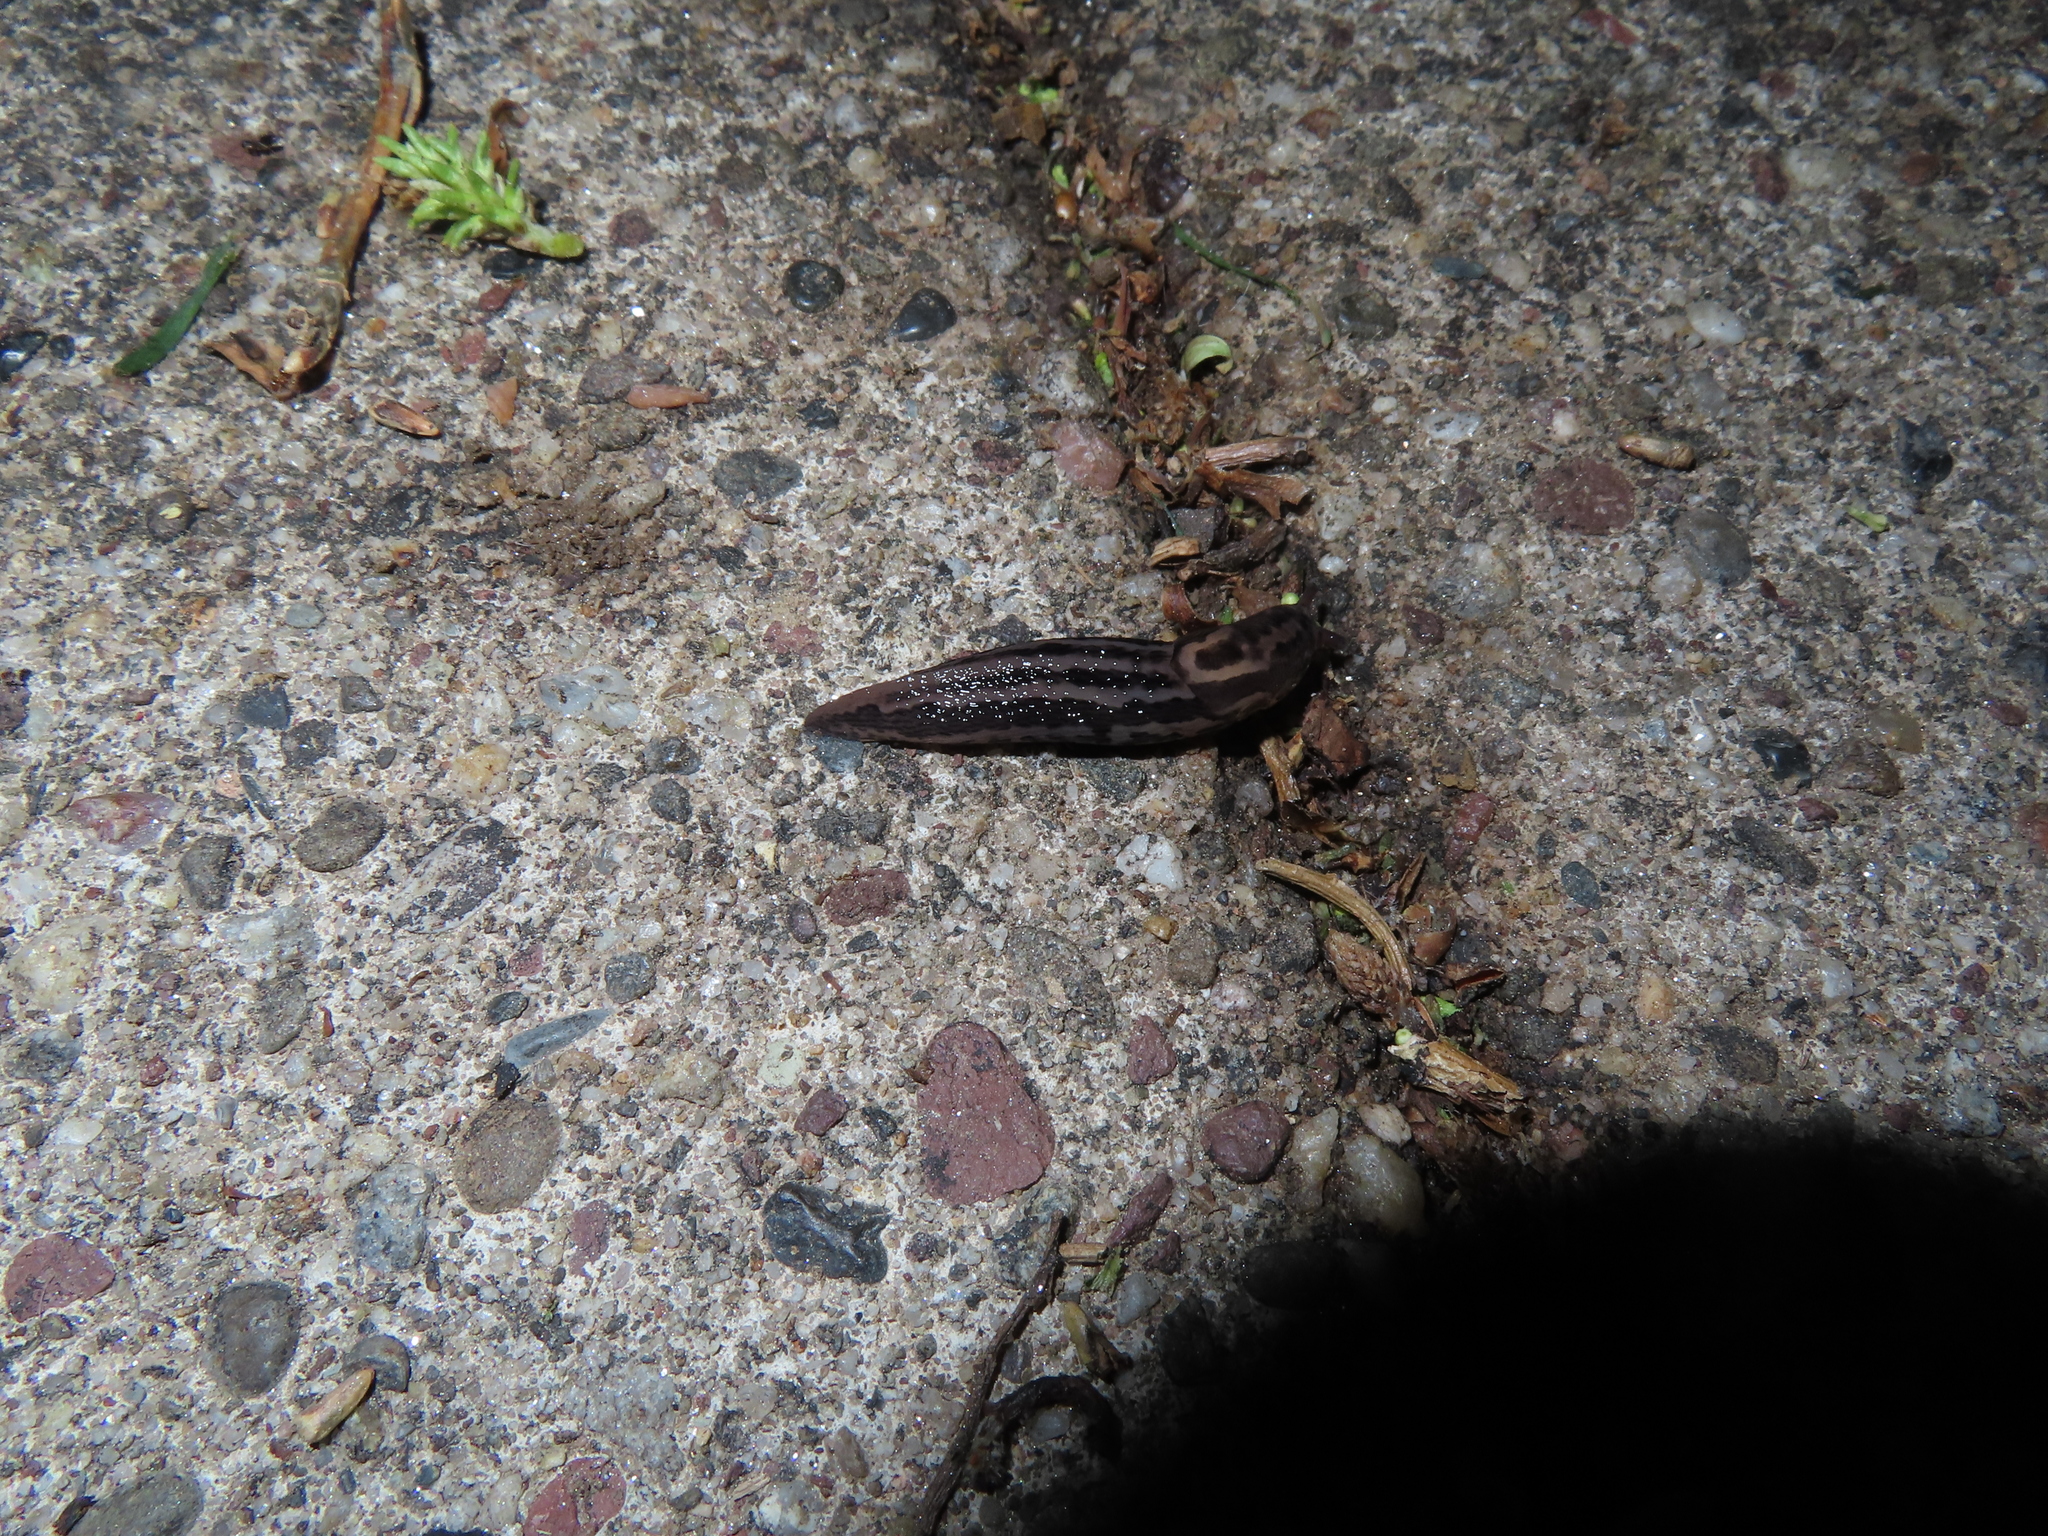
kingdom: Animalia
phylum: Mollusca
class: Gastropoda
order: Stylommatophora
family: Limacidae
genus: Limax
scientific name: Limax maximus
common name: Great grey slug
